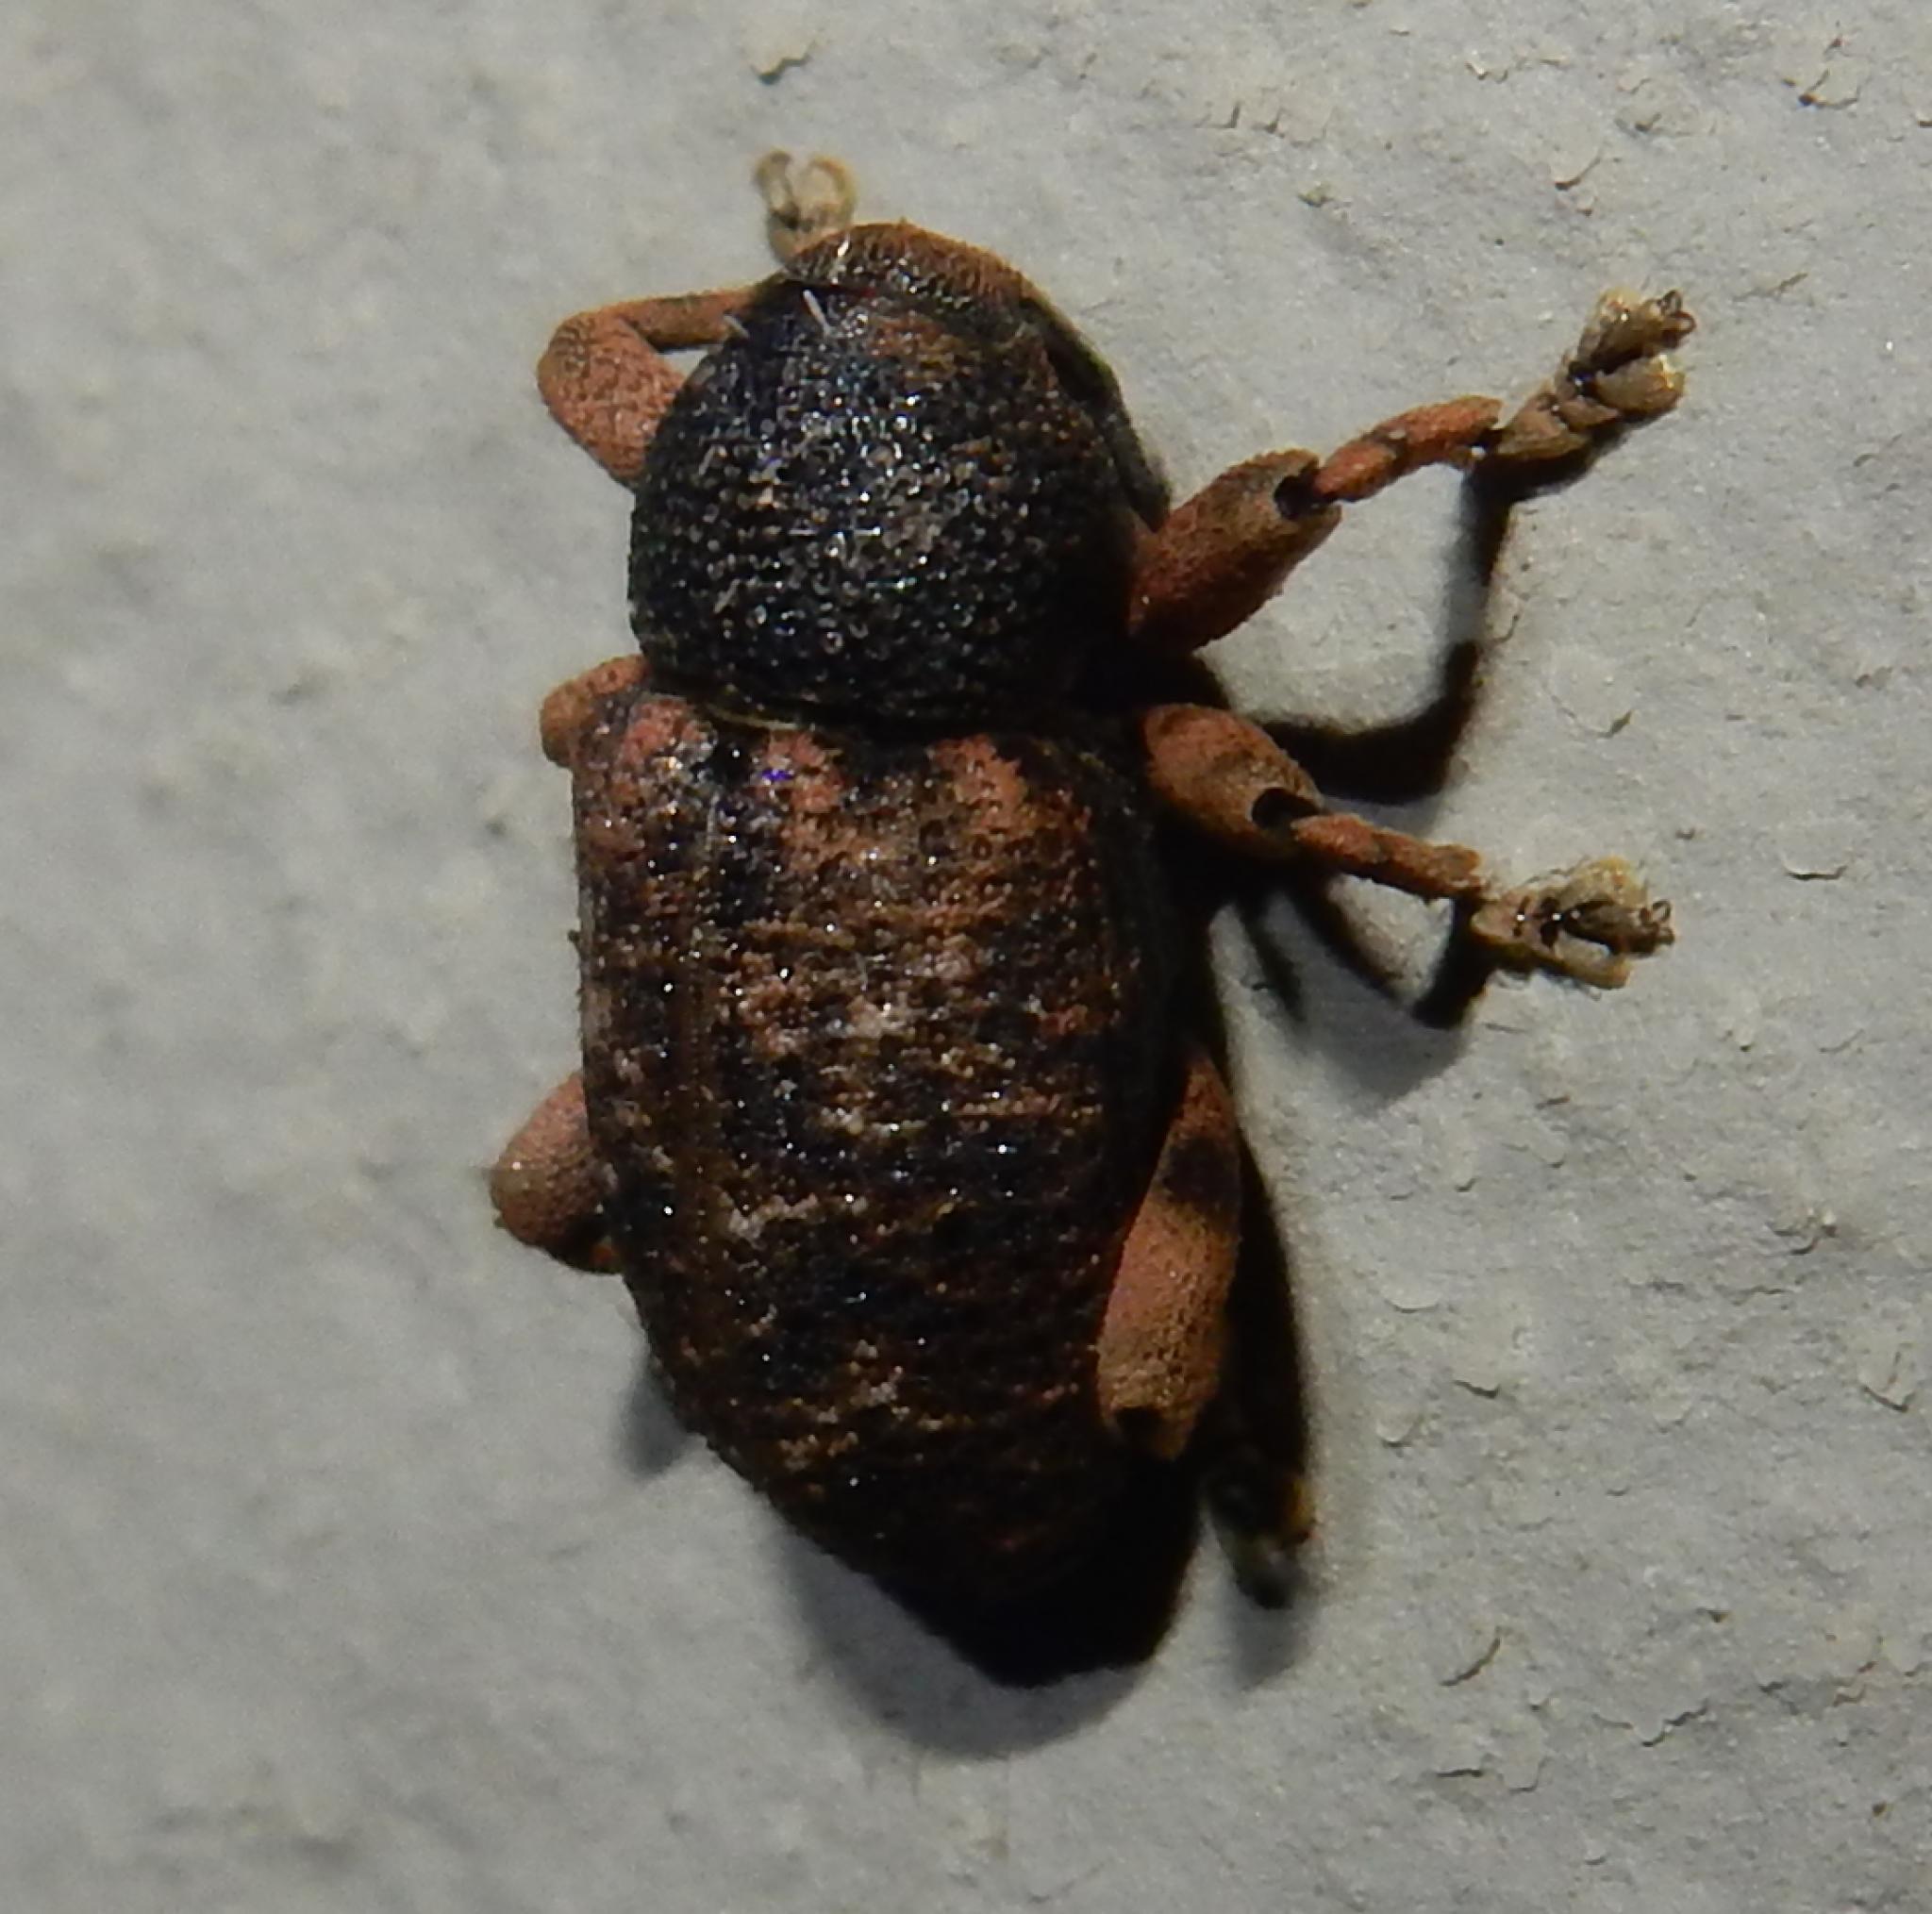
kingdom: Animalia
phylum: Arthropoda
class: Insecta
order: Coleoptera
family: Curculionidae
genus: Rhadinomerus
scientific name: Rhadinomerus
